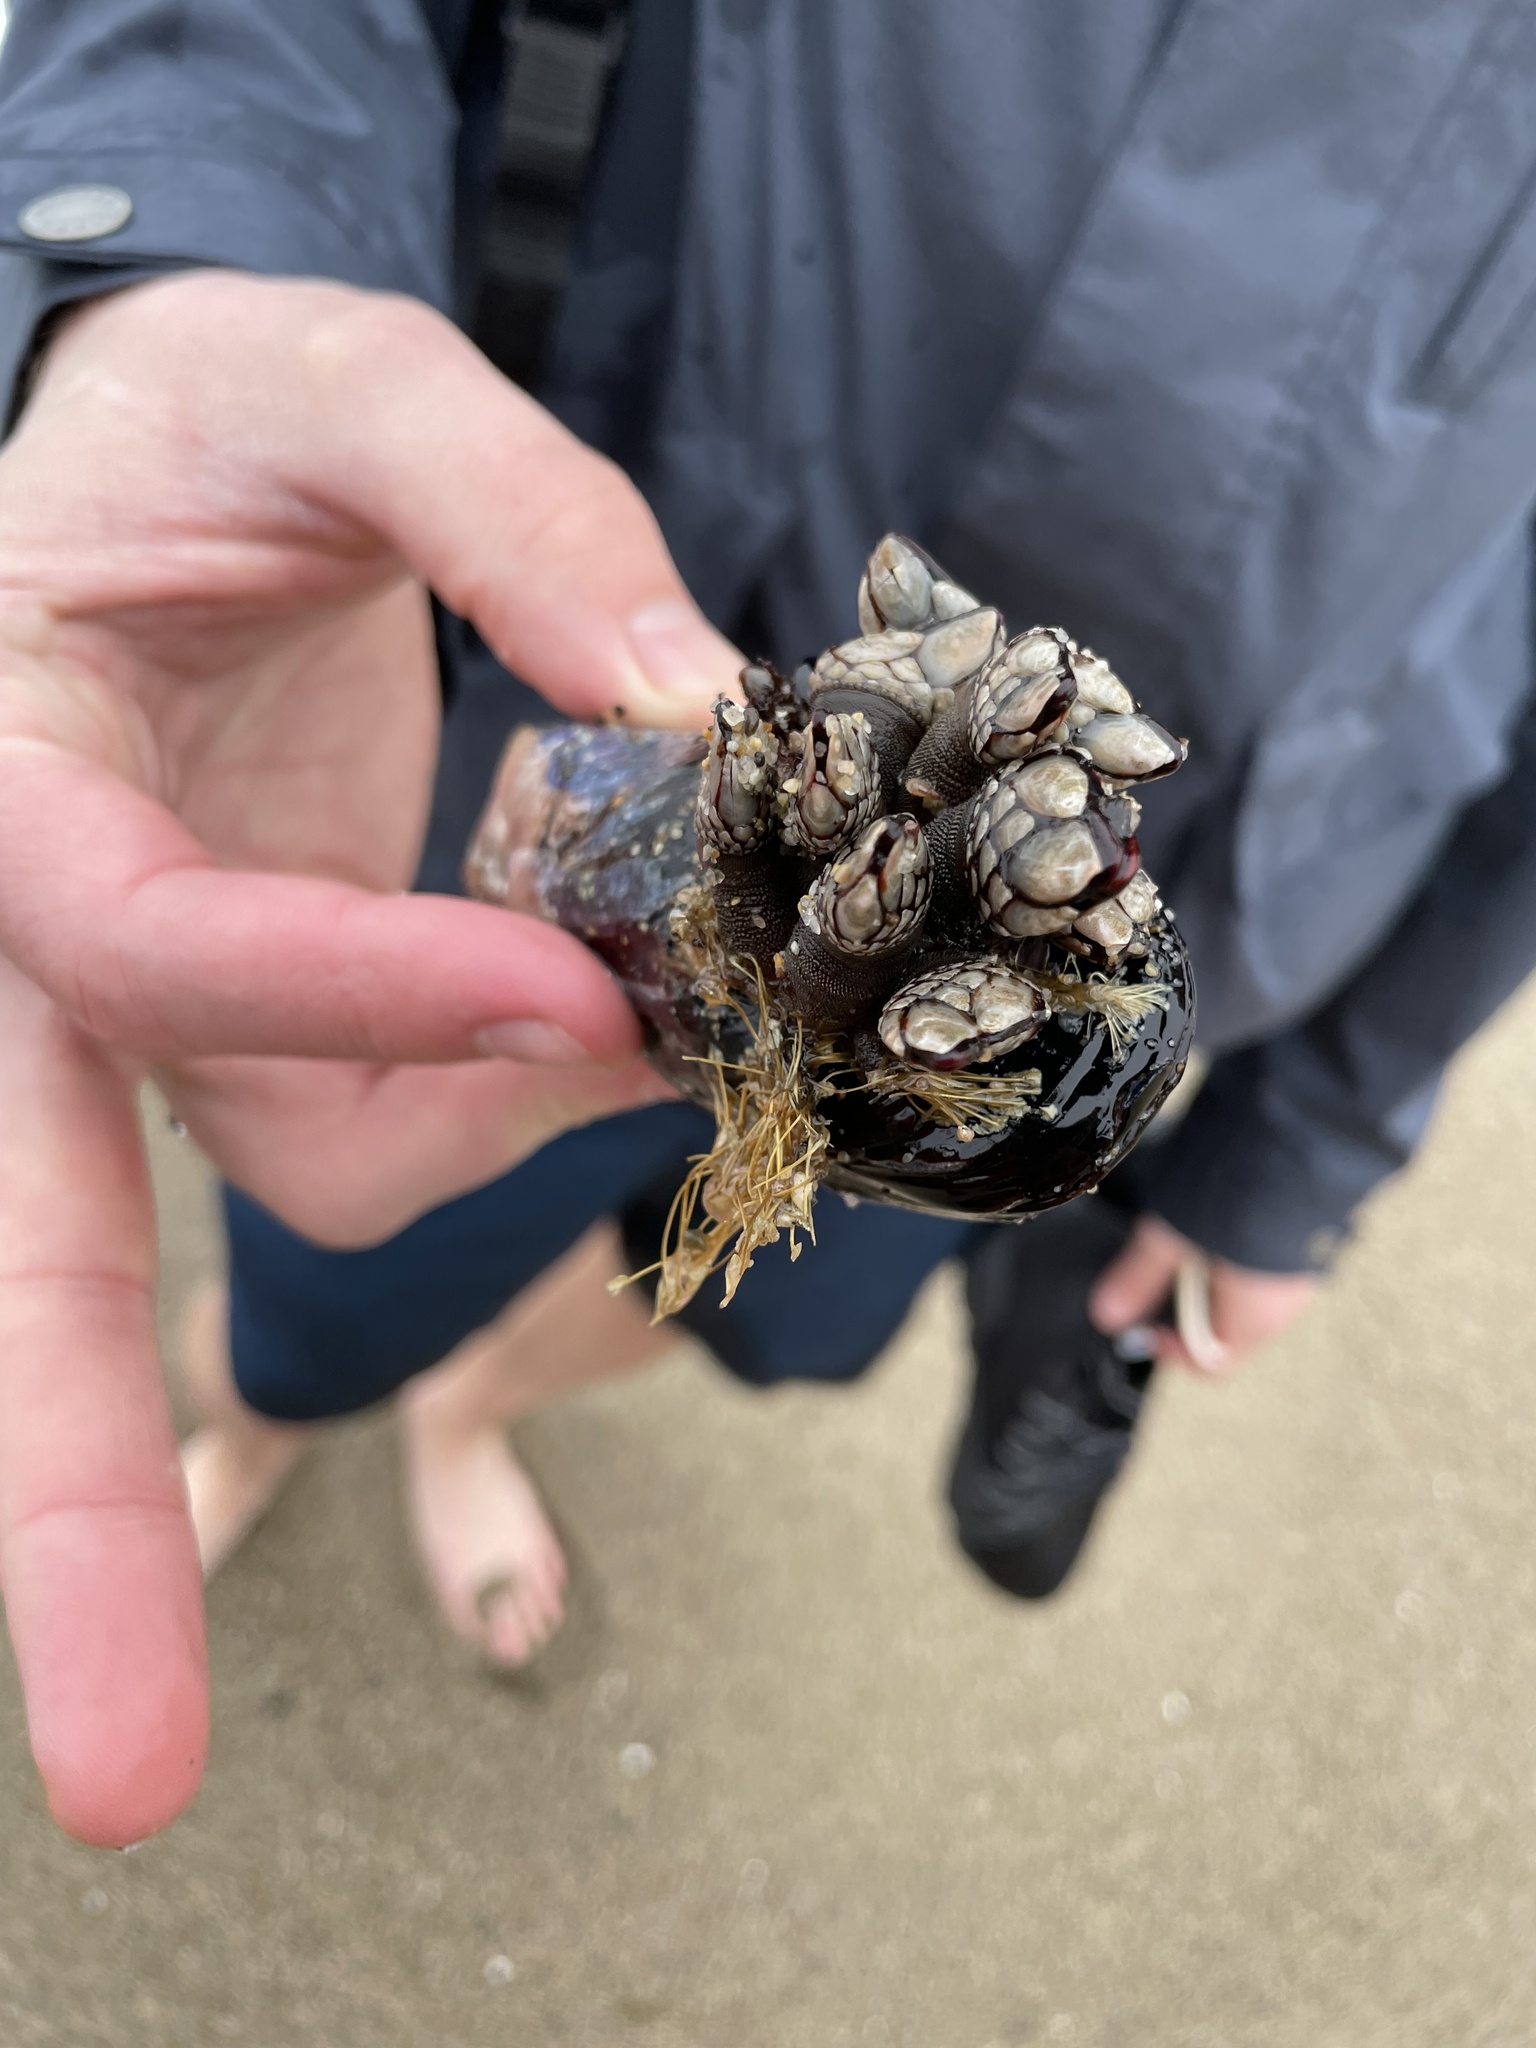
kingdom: Animalia
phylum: Arthropoda
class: Maxillopoda
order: Pedunculata
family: Pollicipedidae
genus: Pollicipes
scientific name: Pollicipes polymerus
